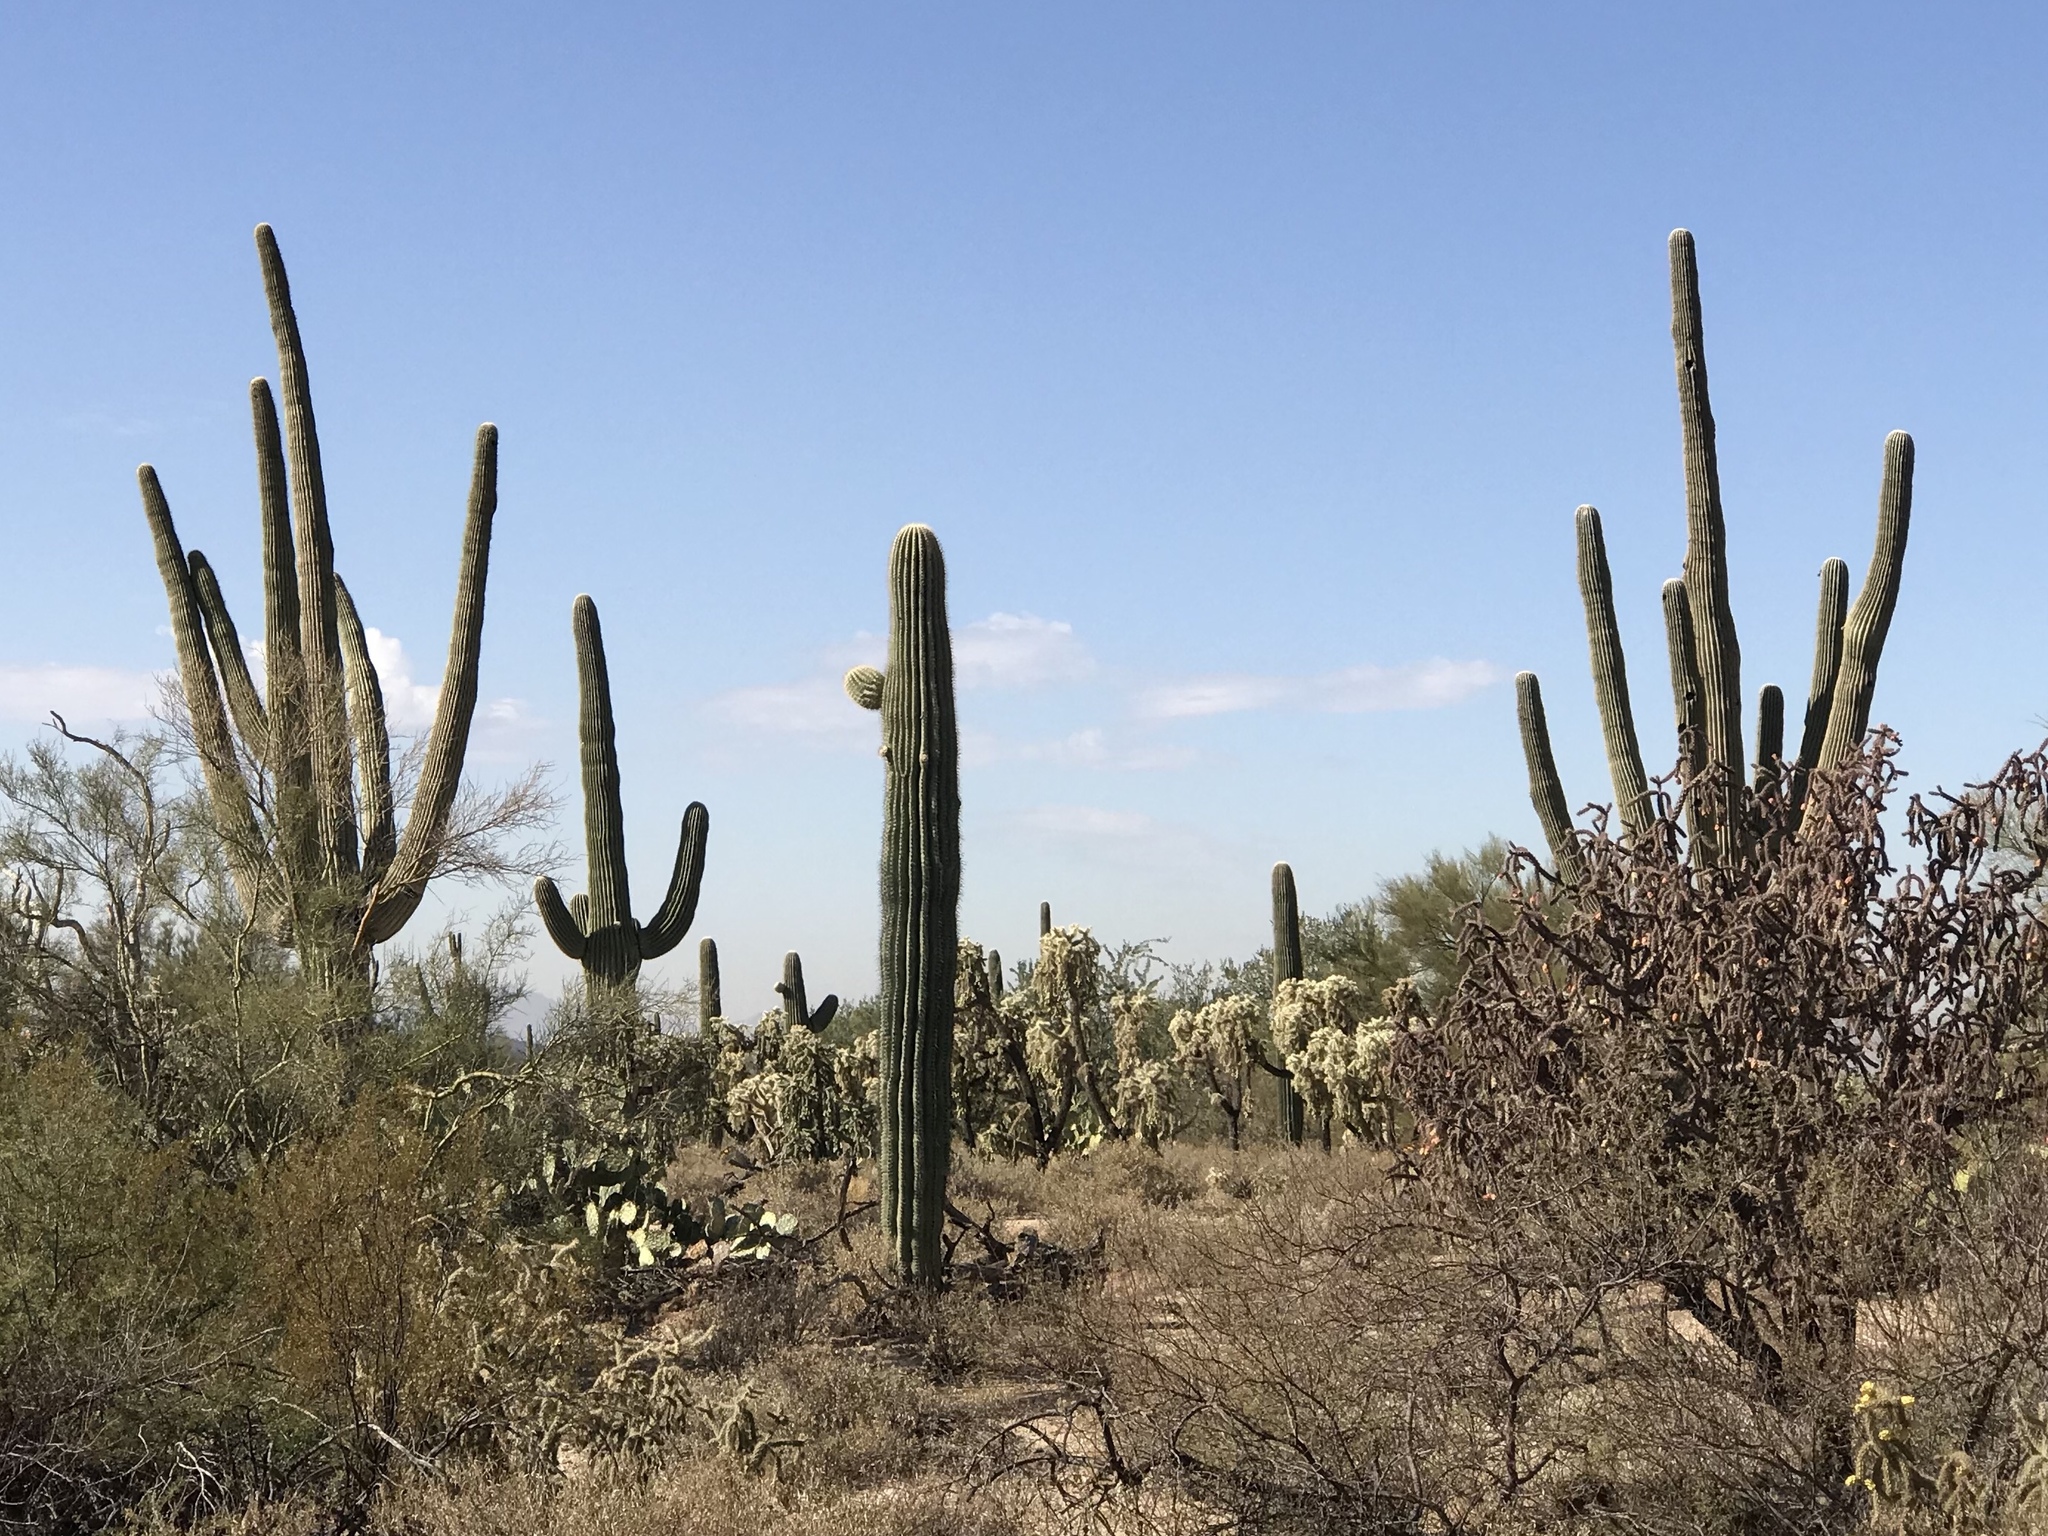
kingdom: Plantae
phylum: Tracheophyta
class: Magnoliopsida
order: Caryophyllales
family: Cactaceae
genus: Carnegiea
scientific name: Carnegiea gigantea
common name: Saguaro
